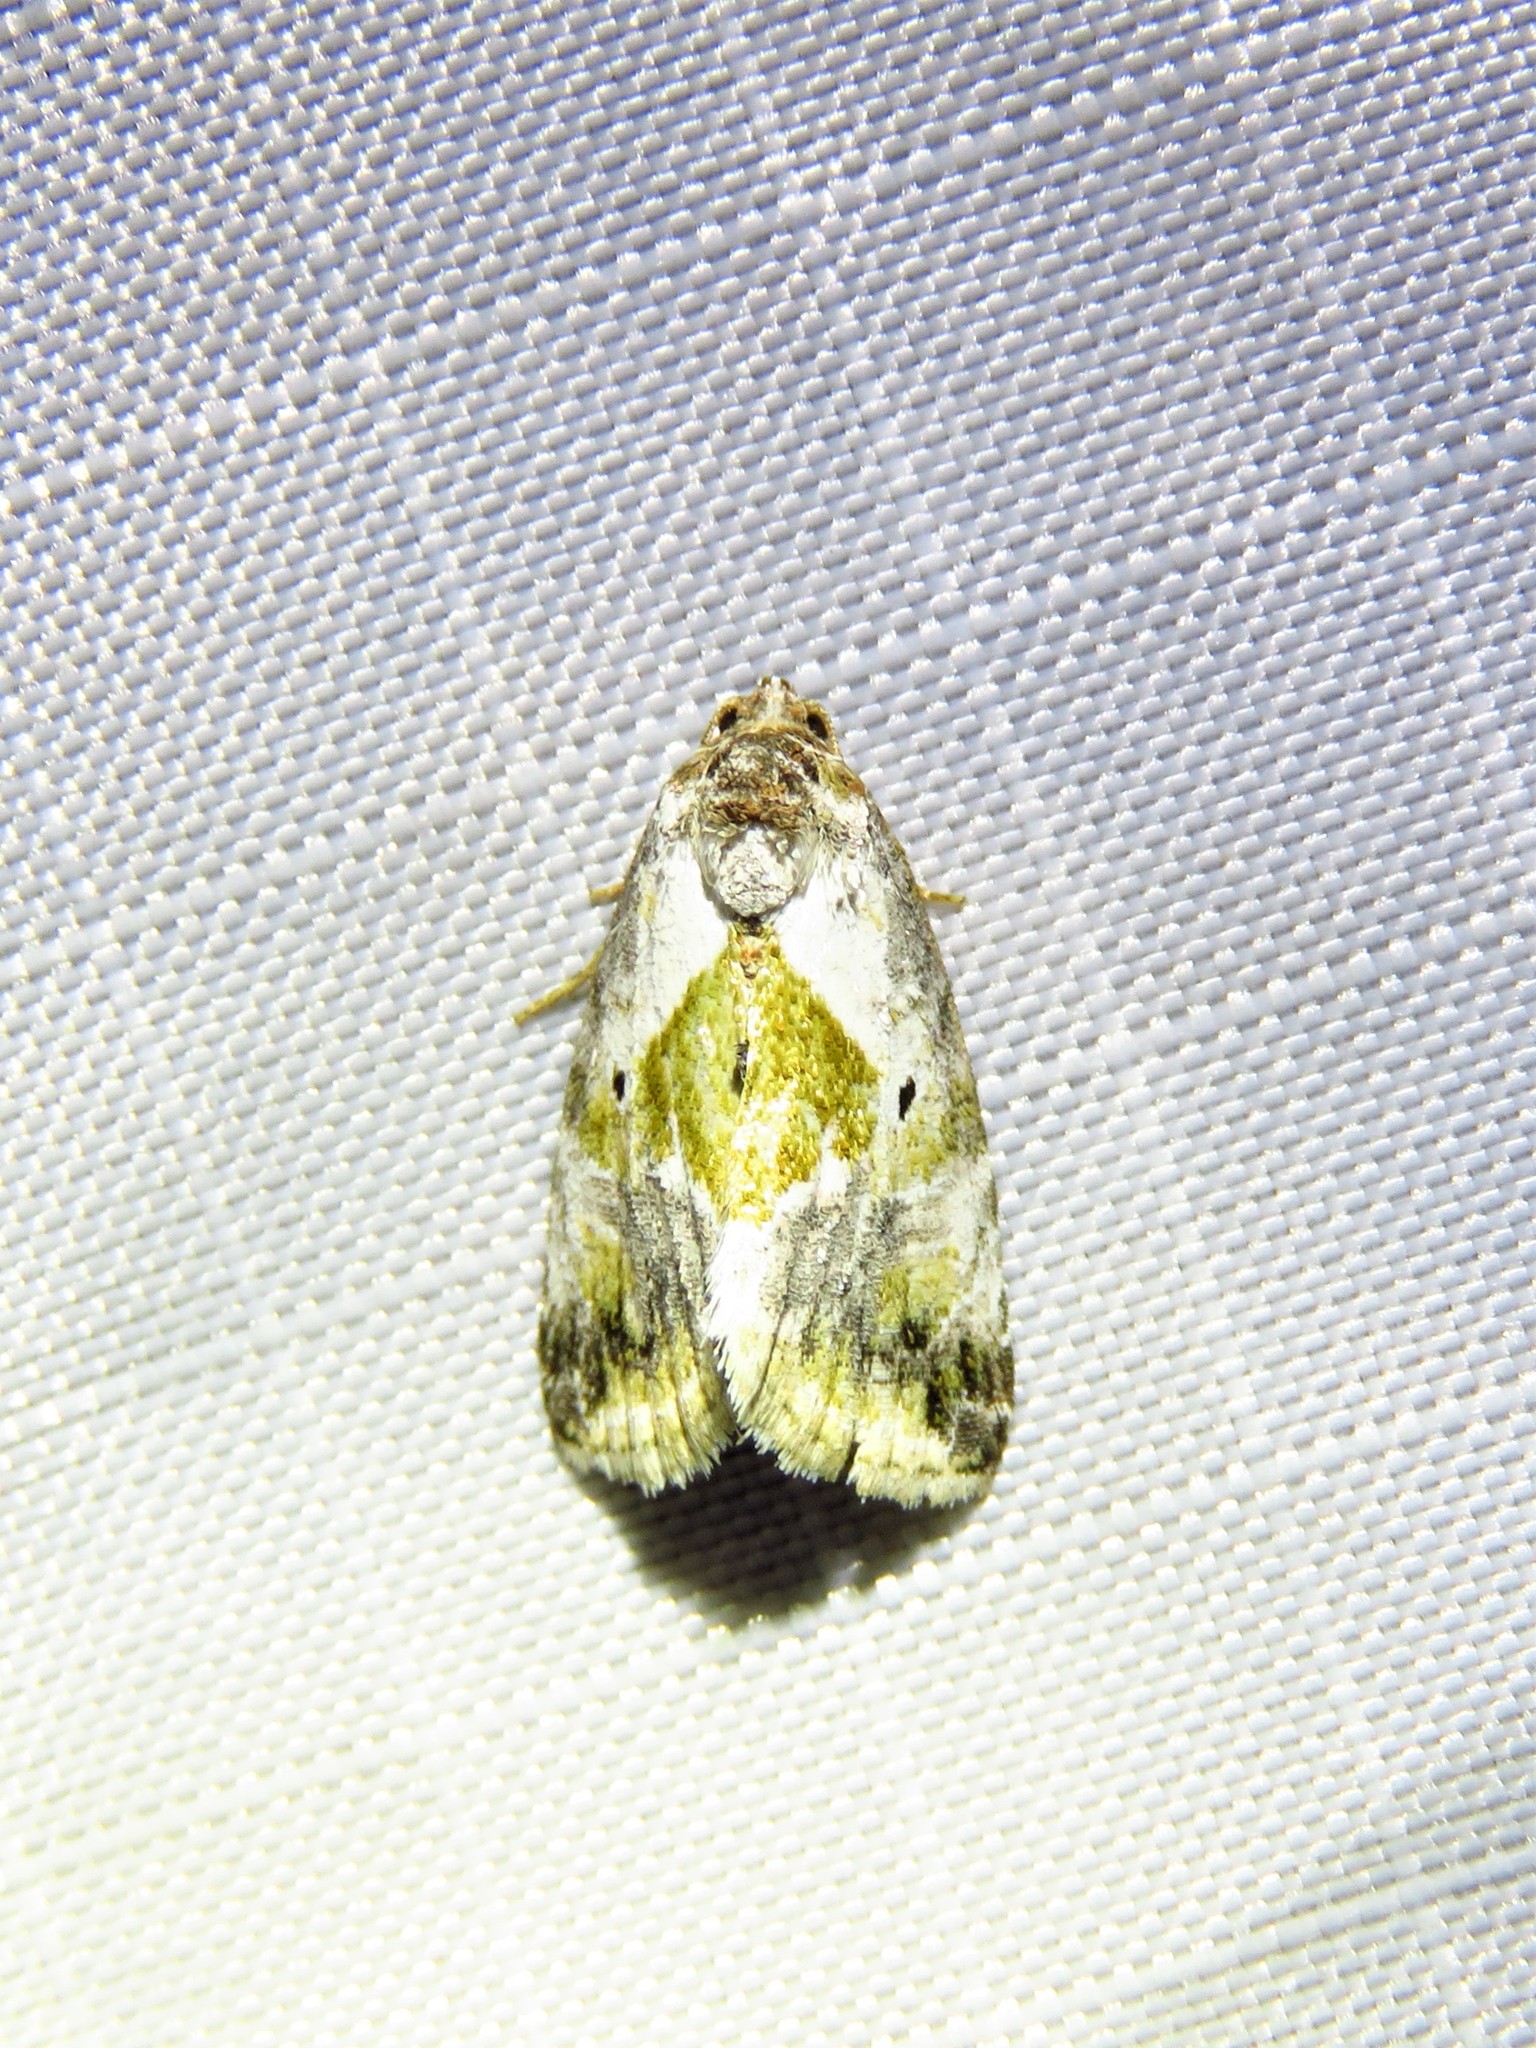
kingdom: Animalia
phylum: Arthropoda
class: Insecta
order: Lepidoptera
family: Noctuidae
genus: Maliattha
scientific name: Maliattha synochitis
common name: Black-dotted glyph
